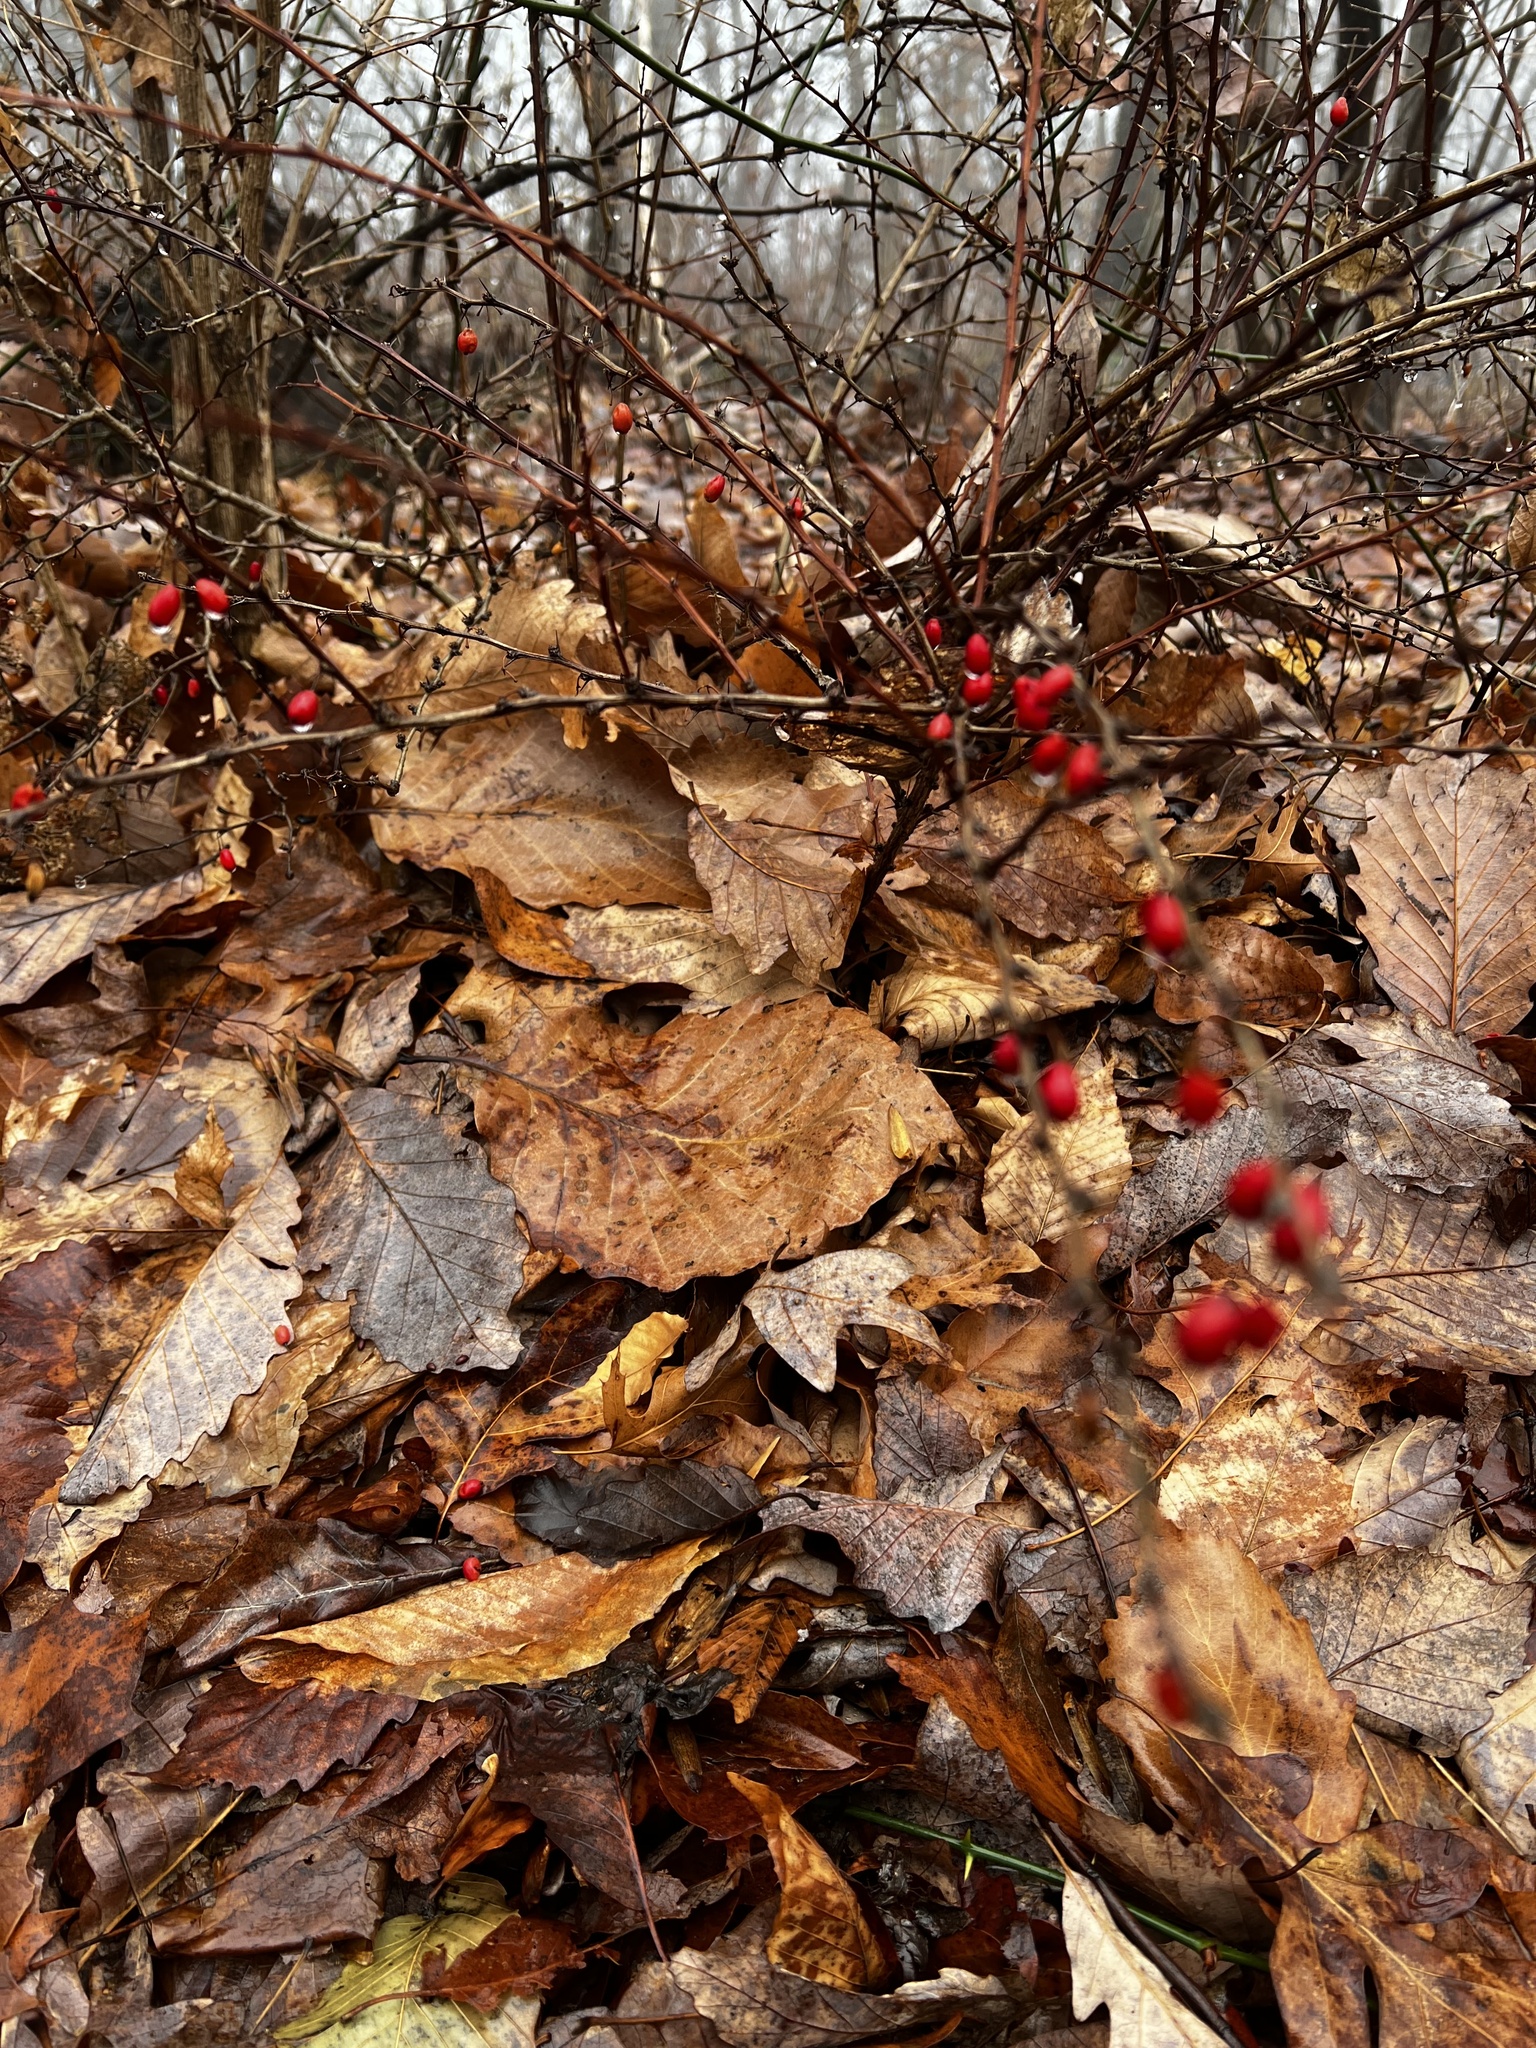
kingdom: Plantae
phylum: Tracheophyta
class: Magnoliopsida
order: Ranunculales
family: Berberidaceae
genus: Berberis
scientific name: Berberis thunbergii
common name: Japanese barberry
